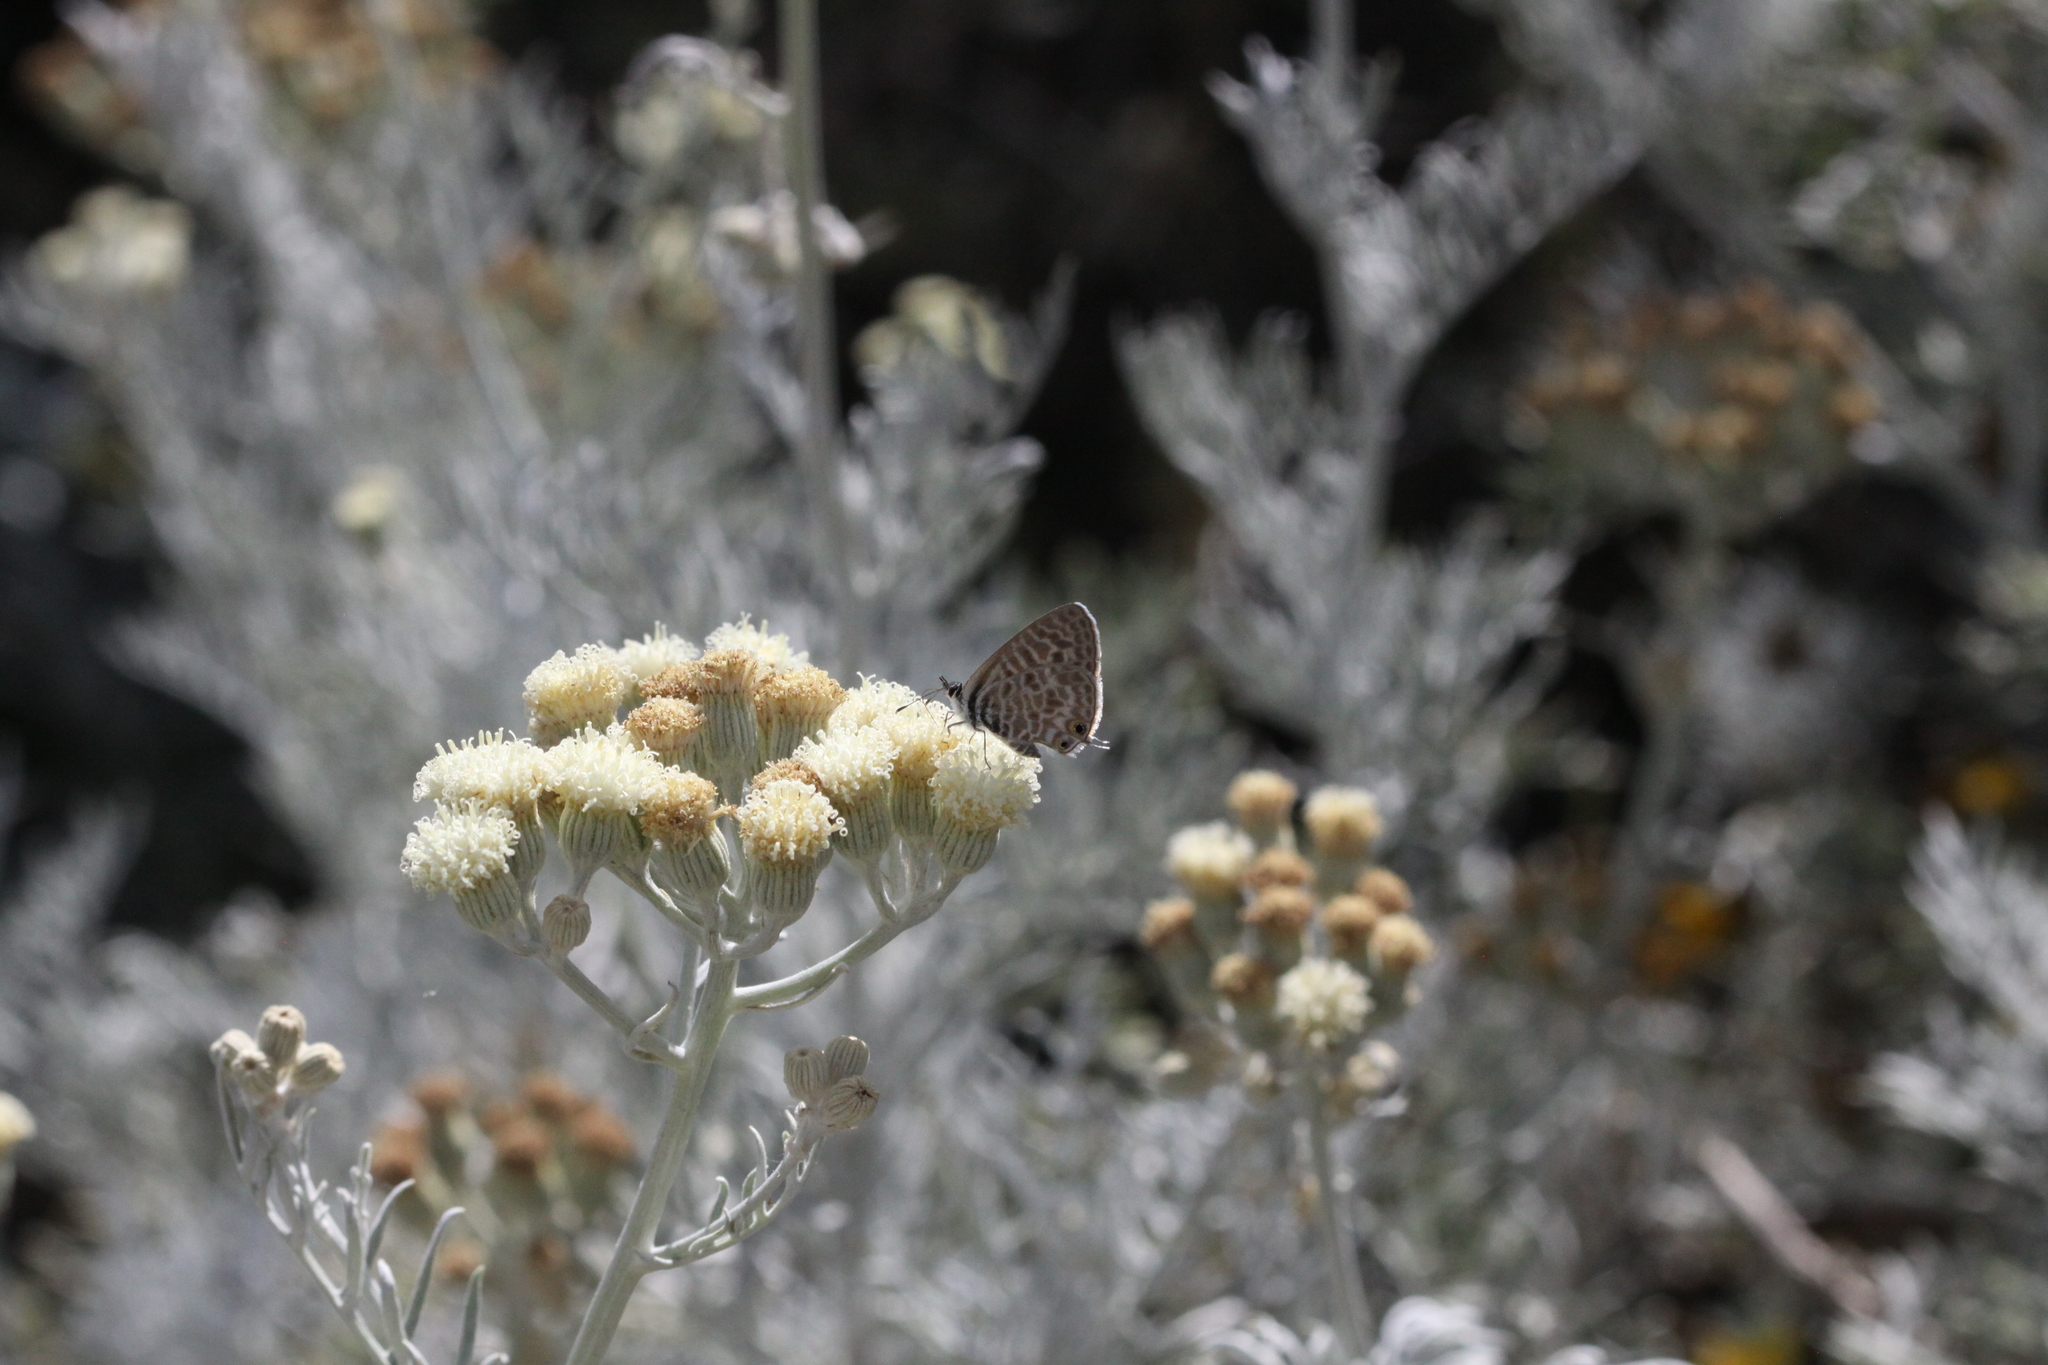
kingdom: Animalia
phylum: Arthropoda
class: Insecta
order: Lepidoptera
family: Lycaenidae
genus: Leptotes
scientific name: Leptotes pirithous
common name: Lang's short-tailed blue
